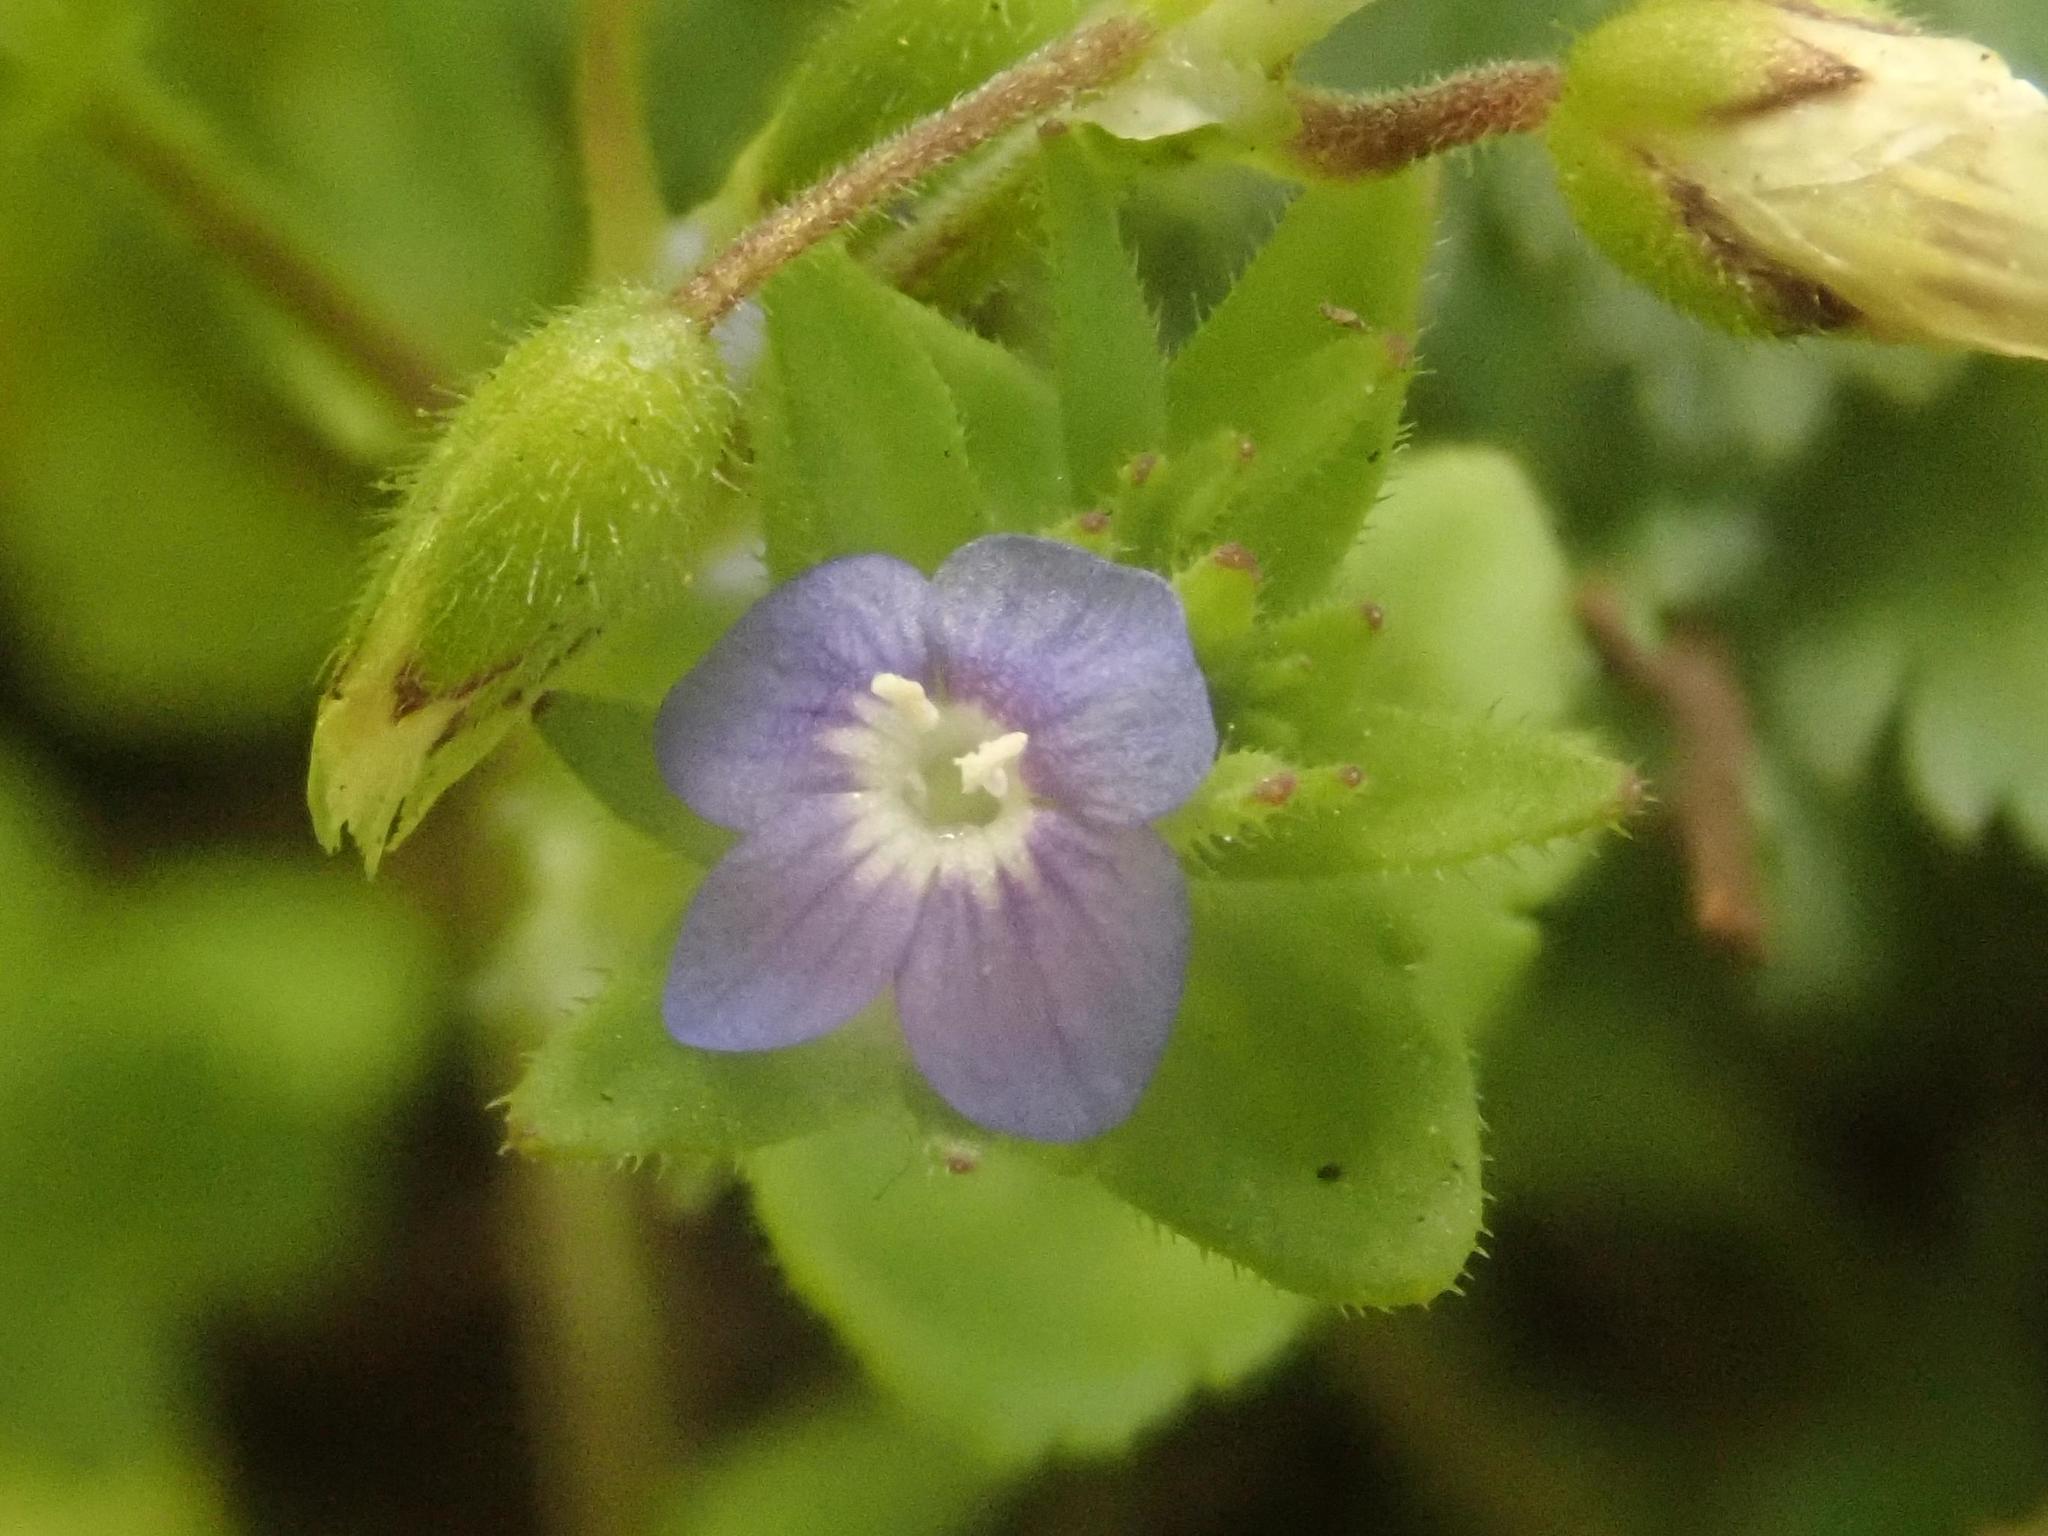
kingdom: Plantae
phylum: Tracheophyta
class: Magnoliopsida
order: Lamiales
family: Plantaginaceae
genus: Veronica
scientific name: Veronica arvensis
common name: Corn speedwell
